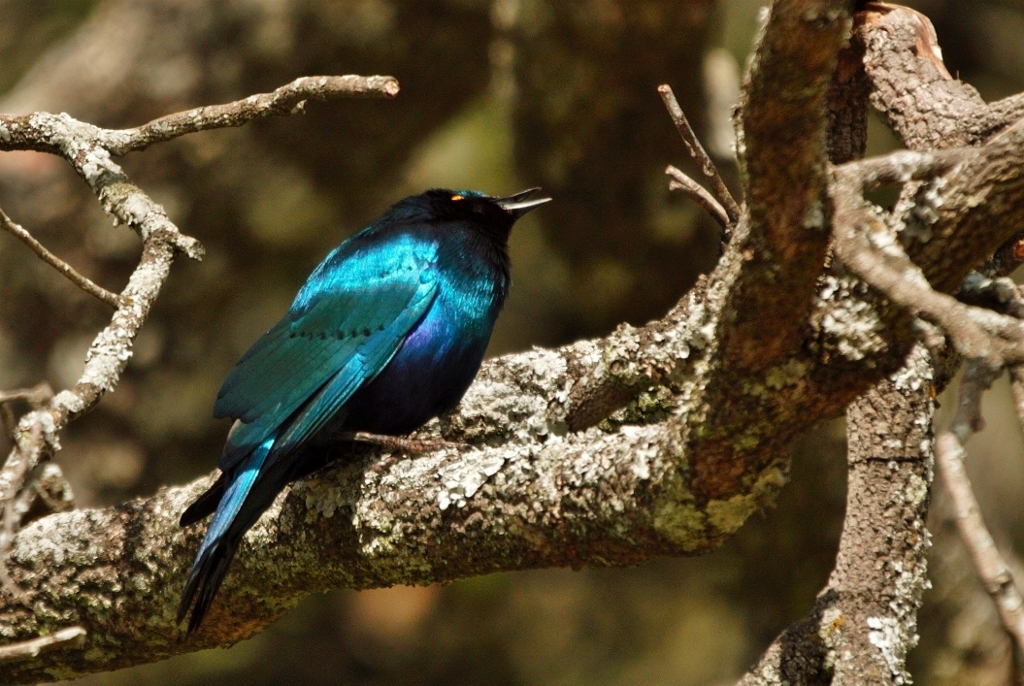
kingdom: Animalia
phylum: Chordata
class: Aves
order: Passeriformes
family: Sturnidae
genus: Lamprotornis
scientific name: Lamprotornis chloropterus
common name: Lesser blue-eared starling
